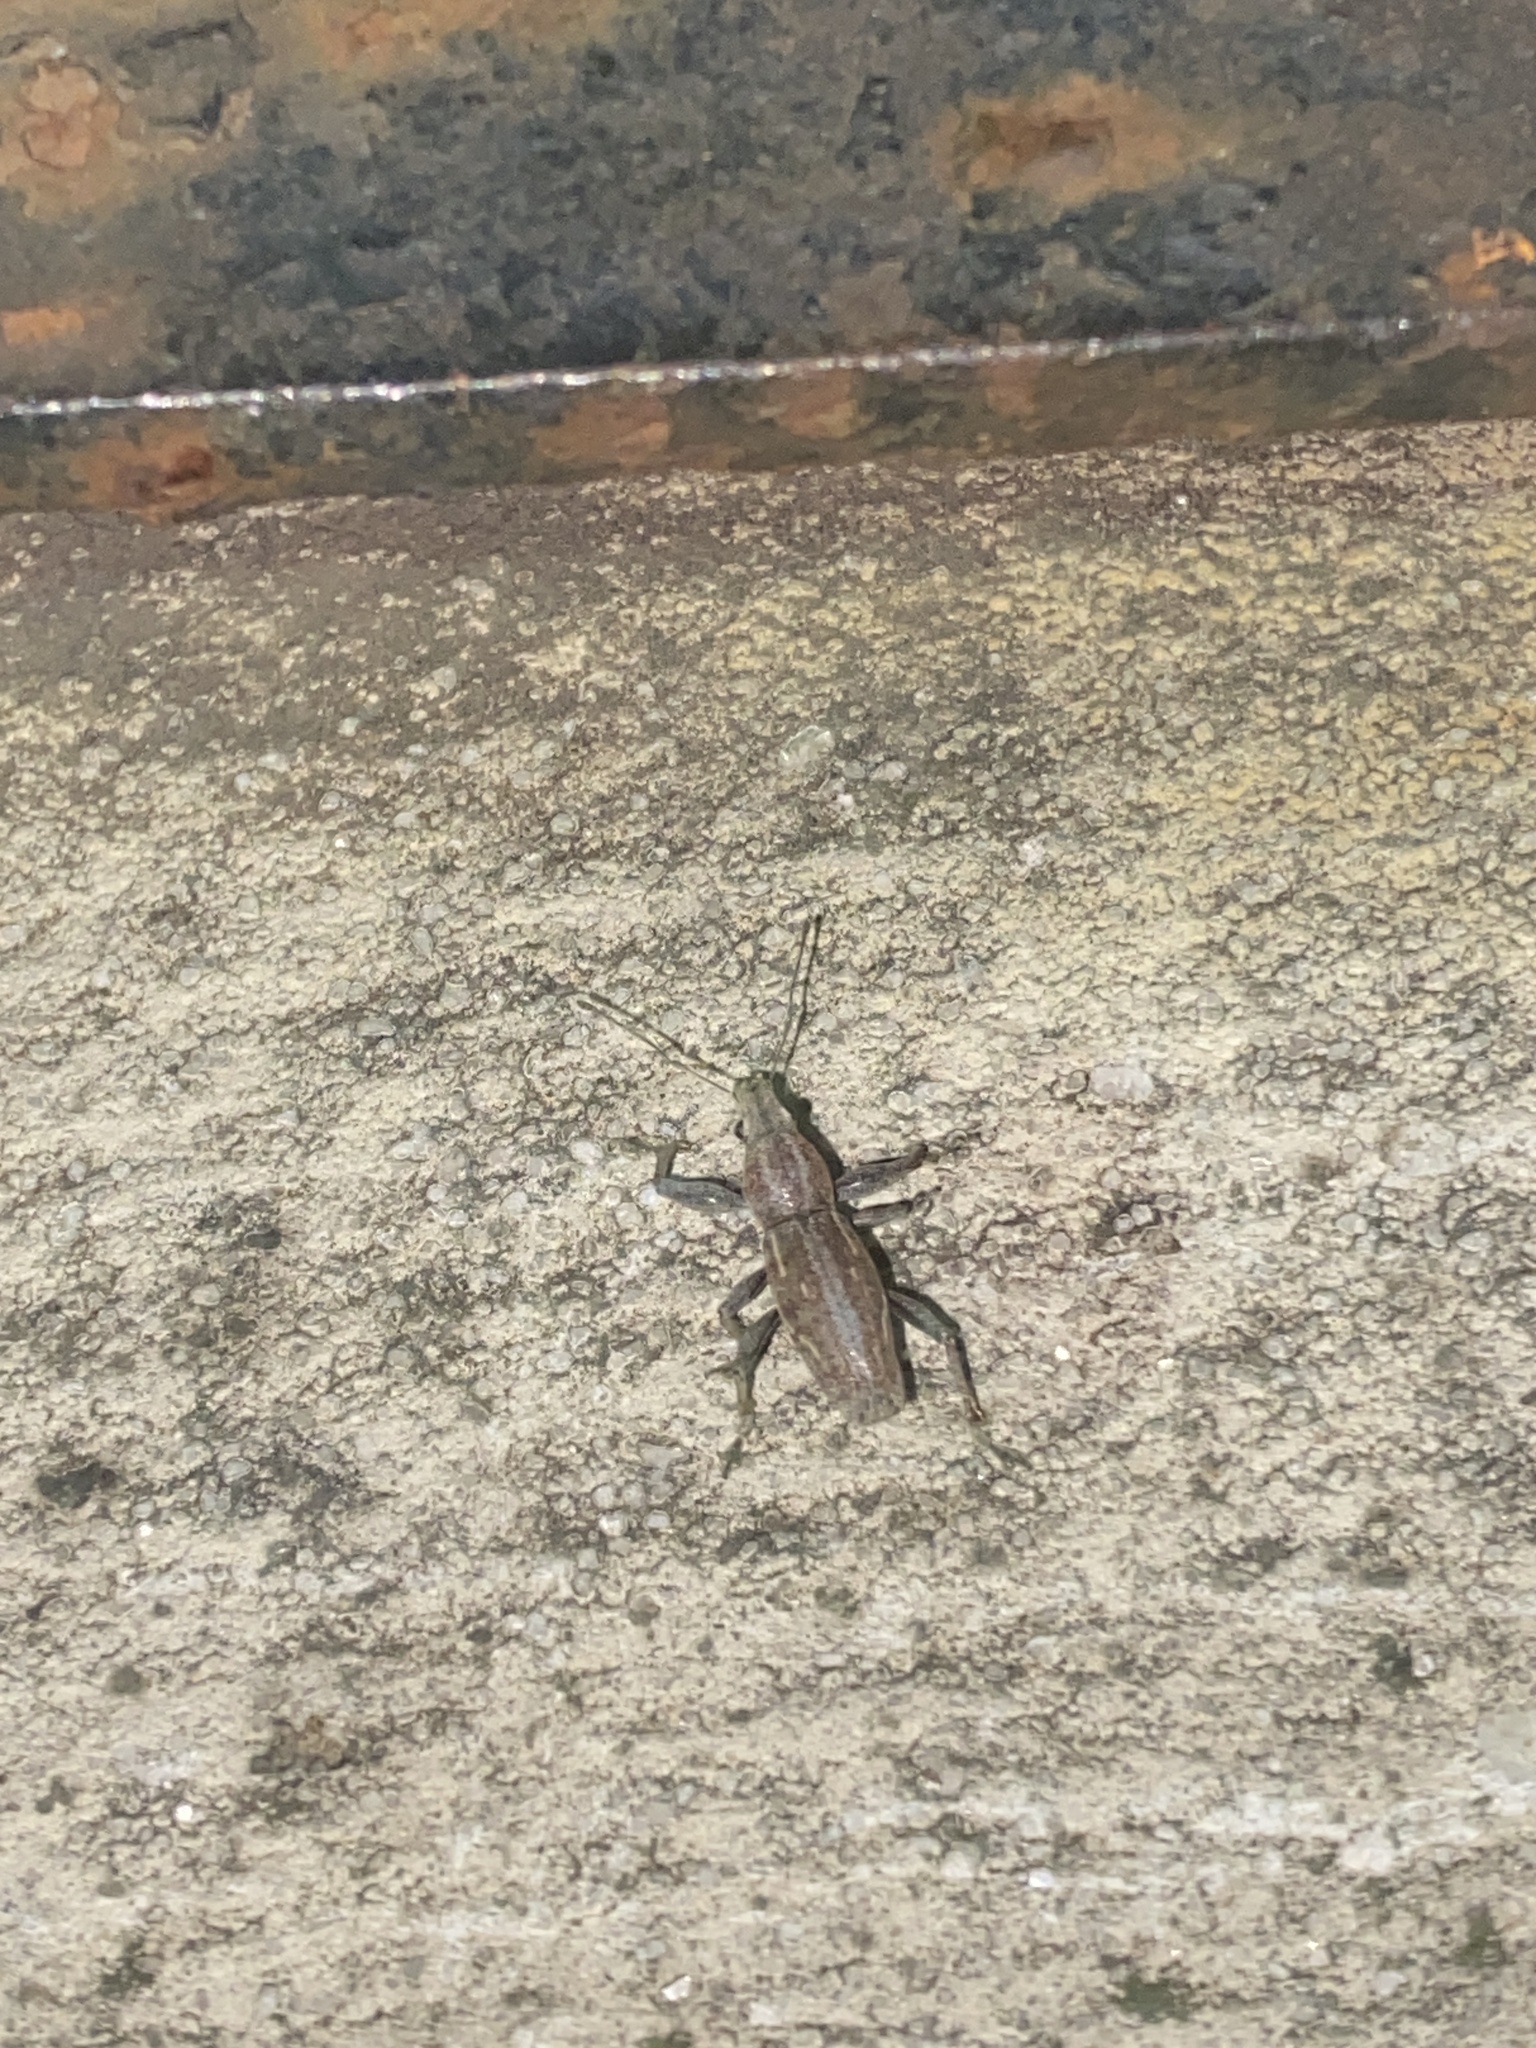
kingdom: Animalia
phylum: Arthropoda
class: Insecta
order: Coleoptera
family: Curculionidae
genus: Naupactus
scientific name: Naupactus xanthographus
